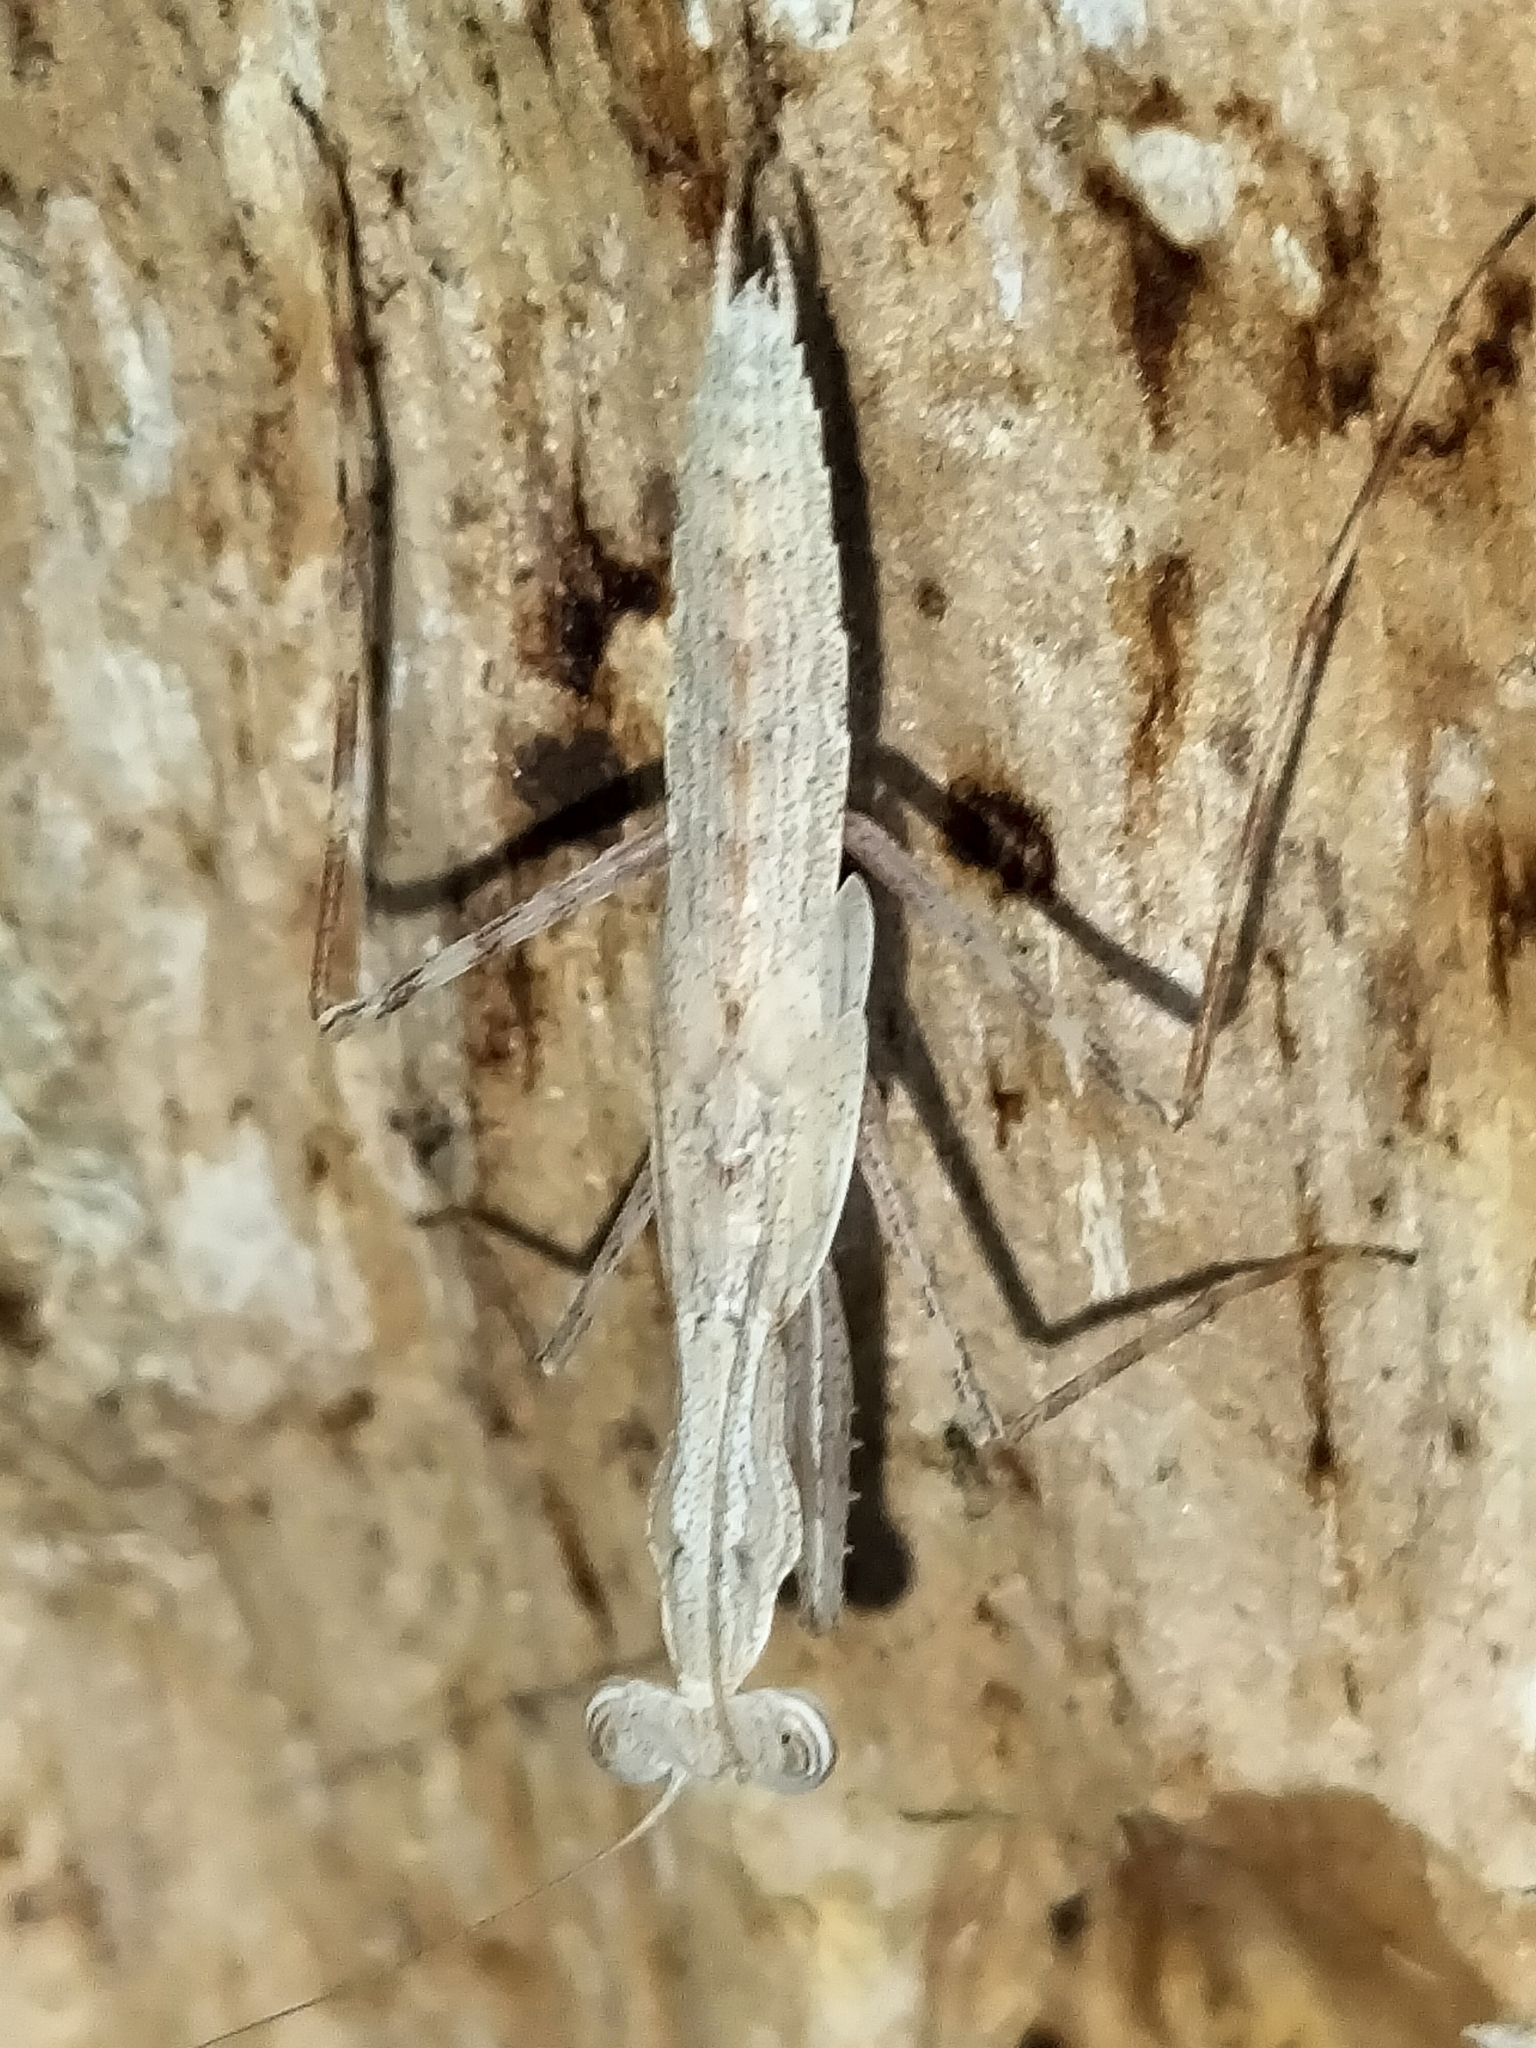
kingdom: Animalia
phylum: Arthropoda
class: Insecta
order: Mantodea
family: Nanomantidae
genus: Ima
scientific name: Ima fusca
